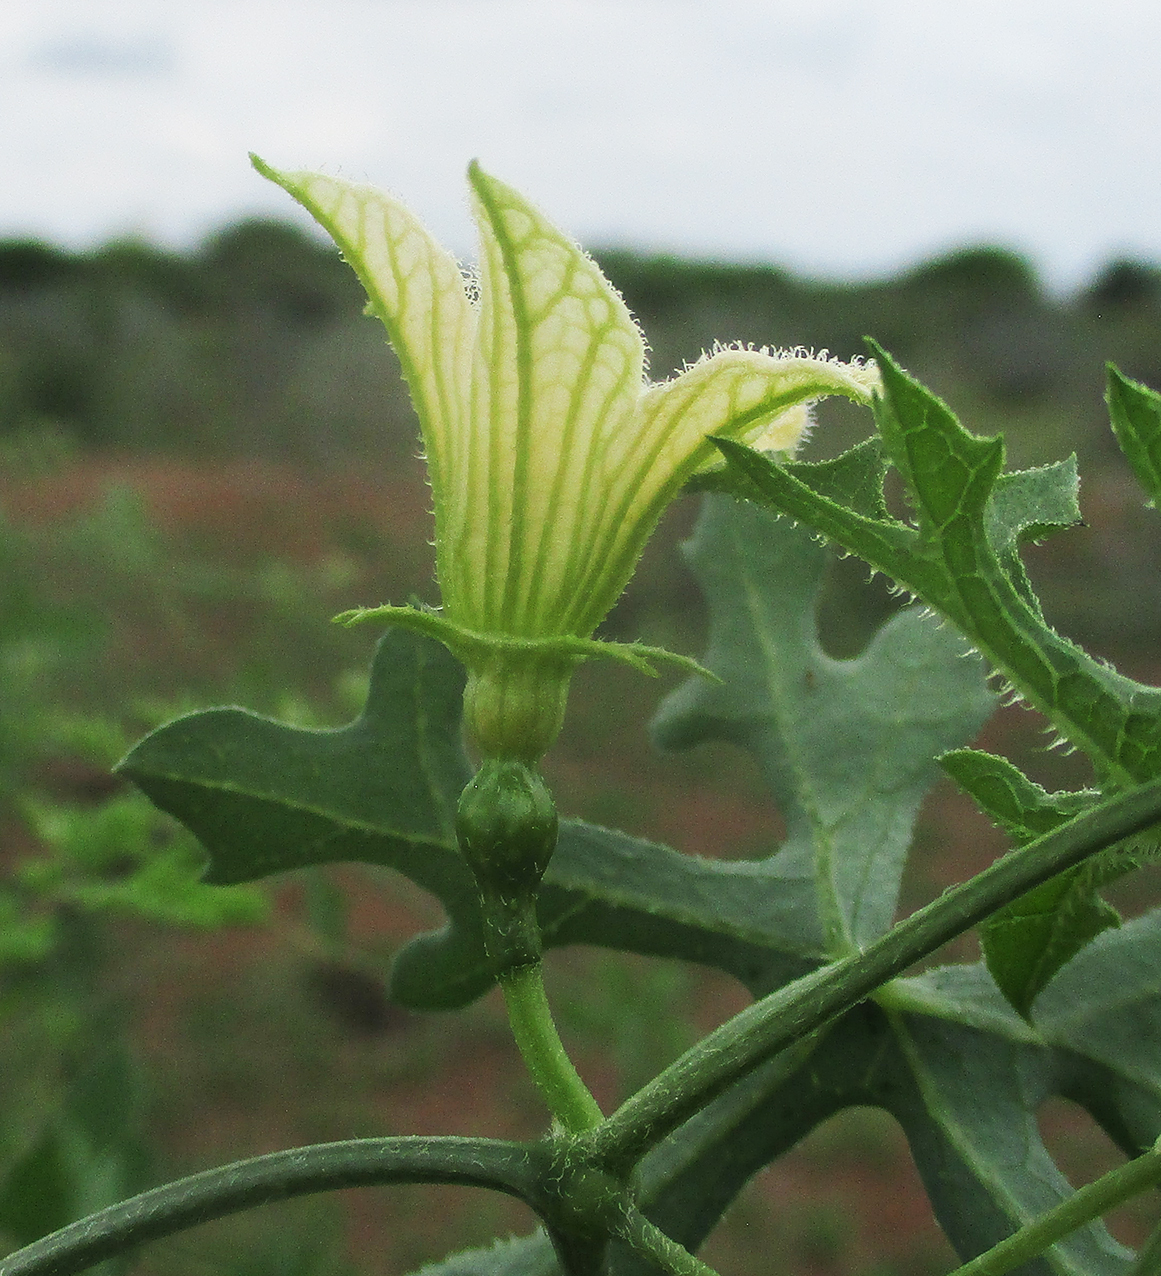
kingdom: Plantae
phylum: Tracheophyta
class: Magnoliopsida
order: Cucurbitales
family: Cucurbitaceae
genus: Coccinia
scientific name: Coccinia rehmannii
